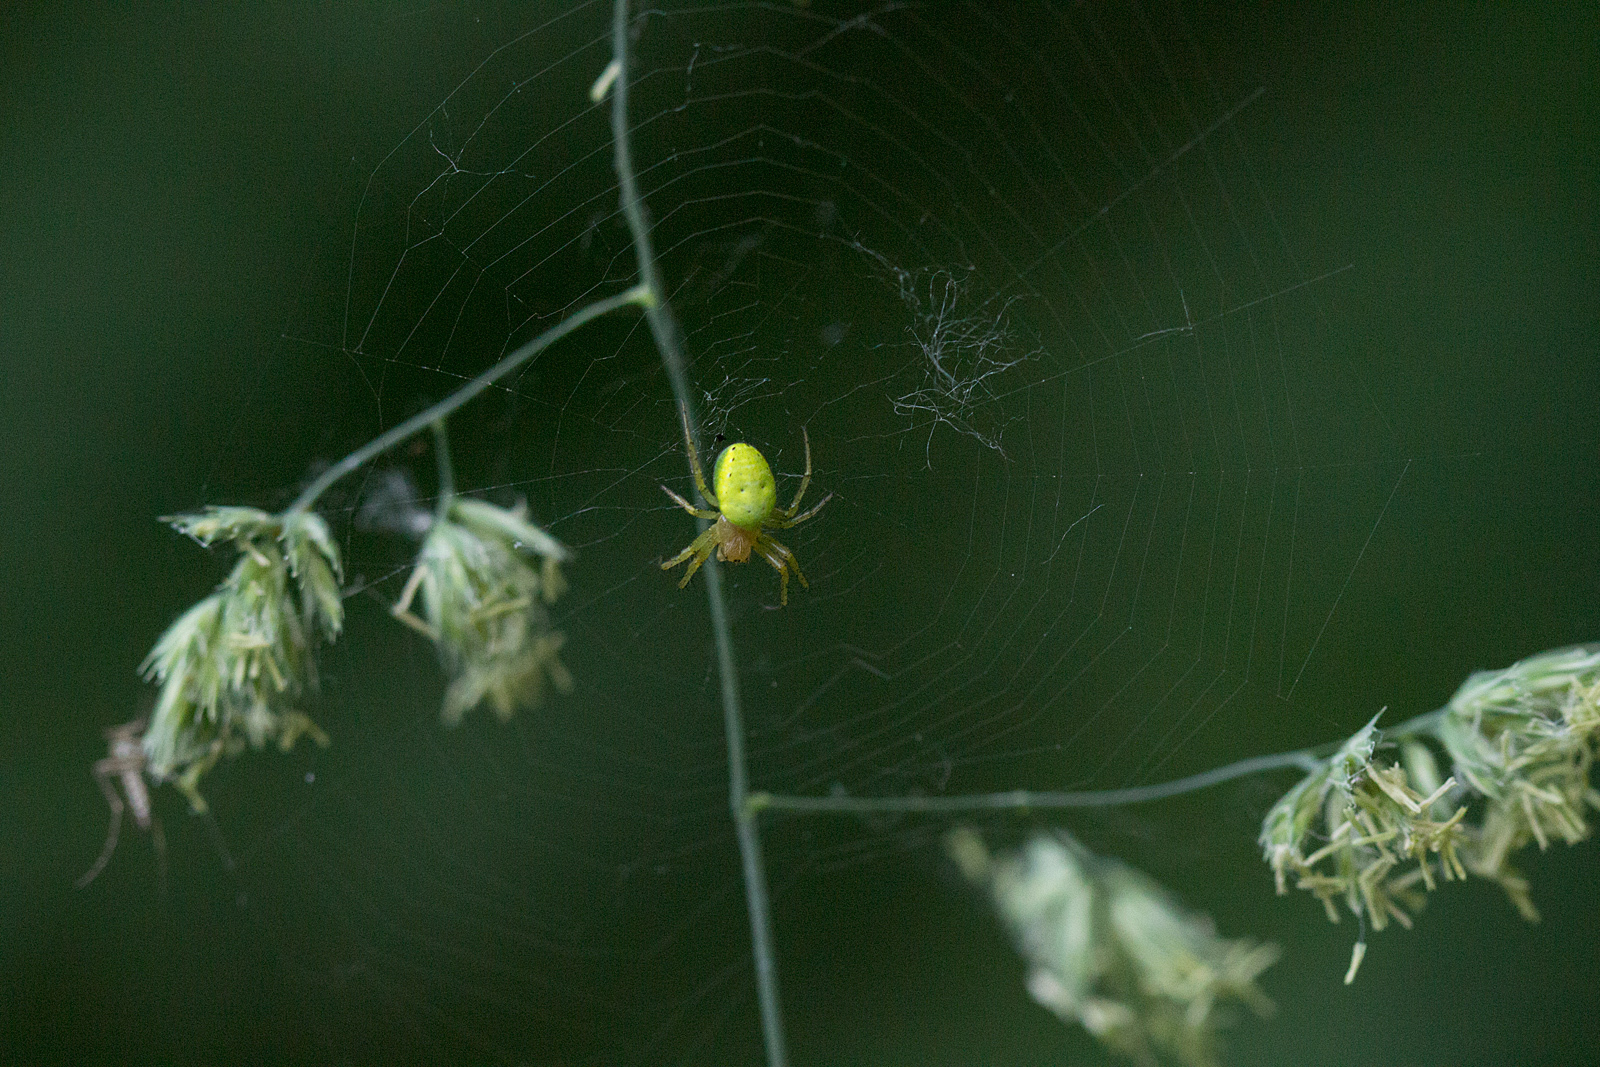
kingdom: Animalia
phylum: Arthropoda
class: Arachnida
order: Araneae
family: Araneidae
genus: Araniella
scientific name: Araniella
